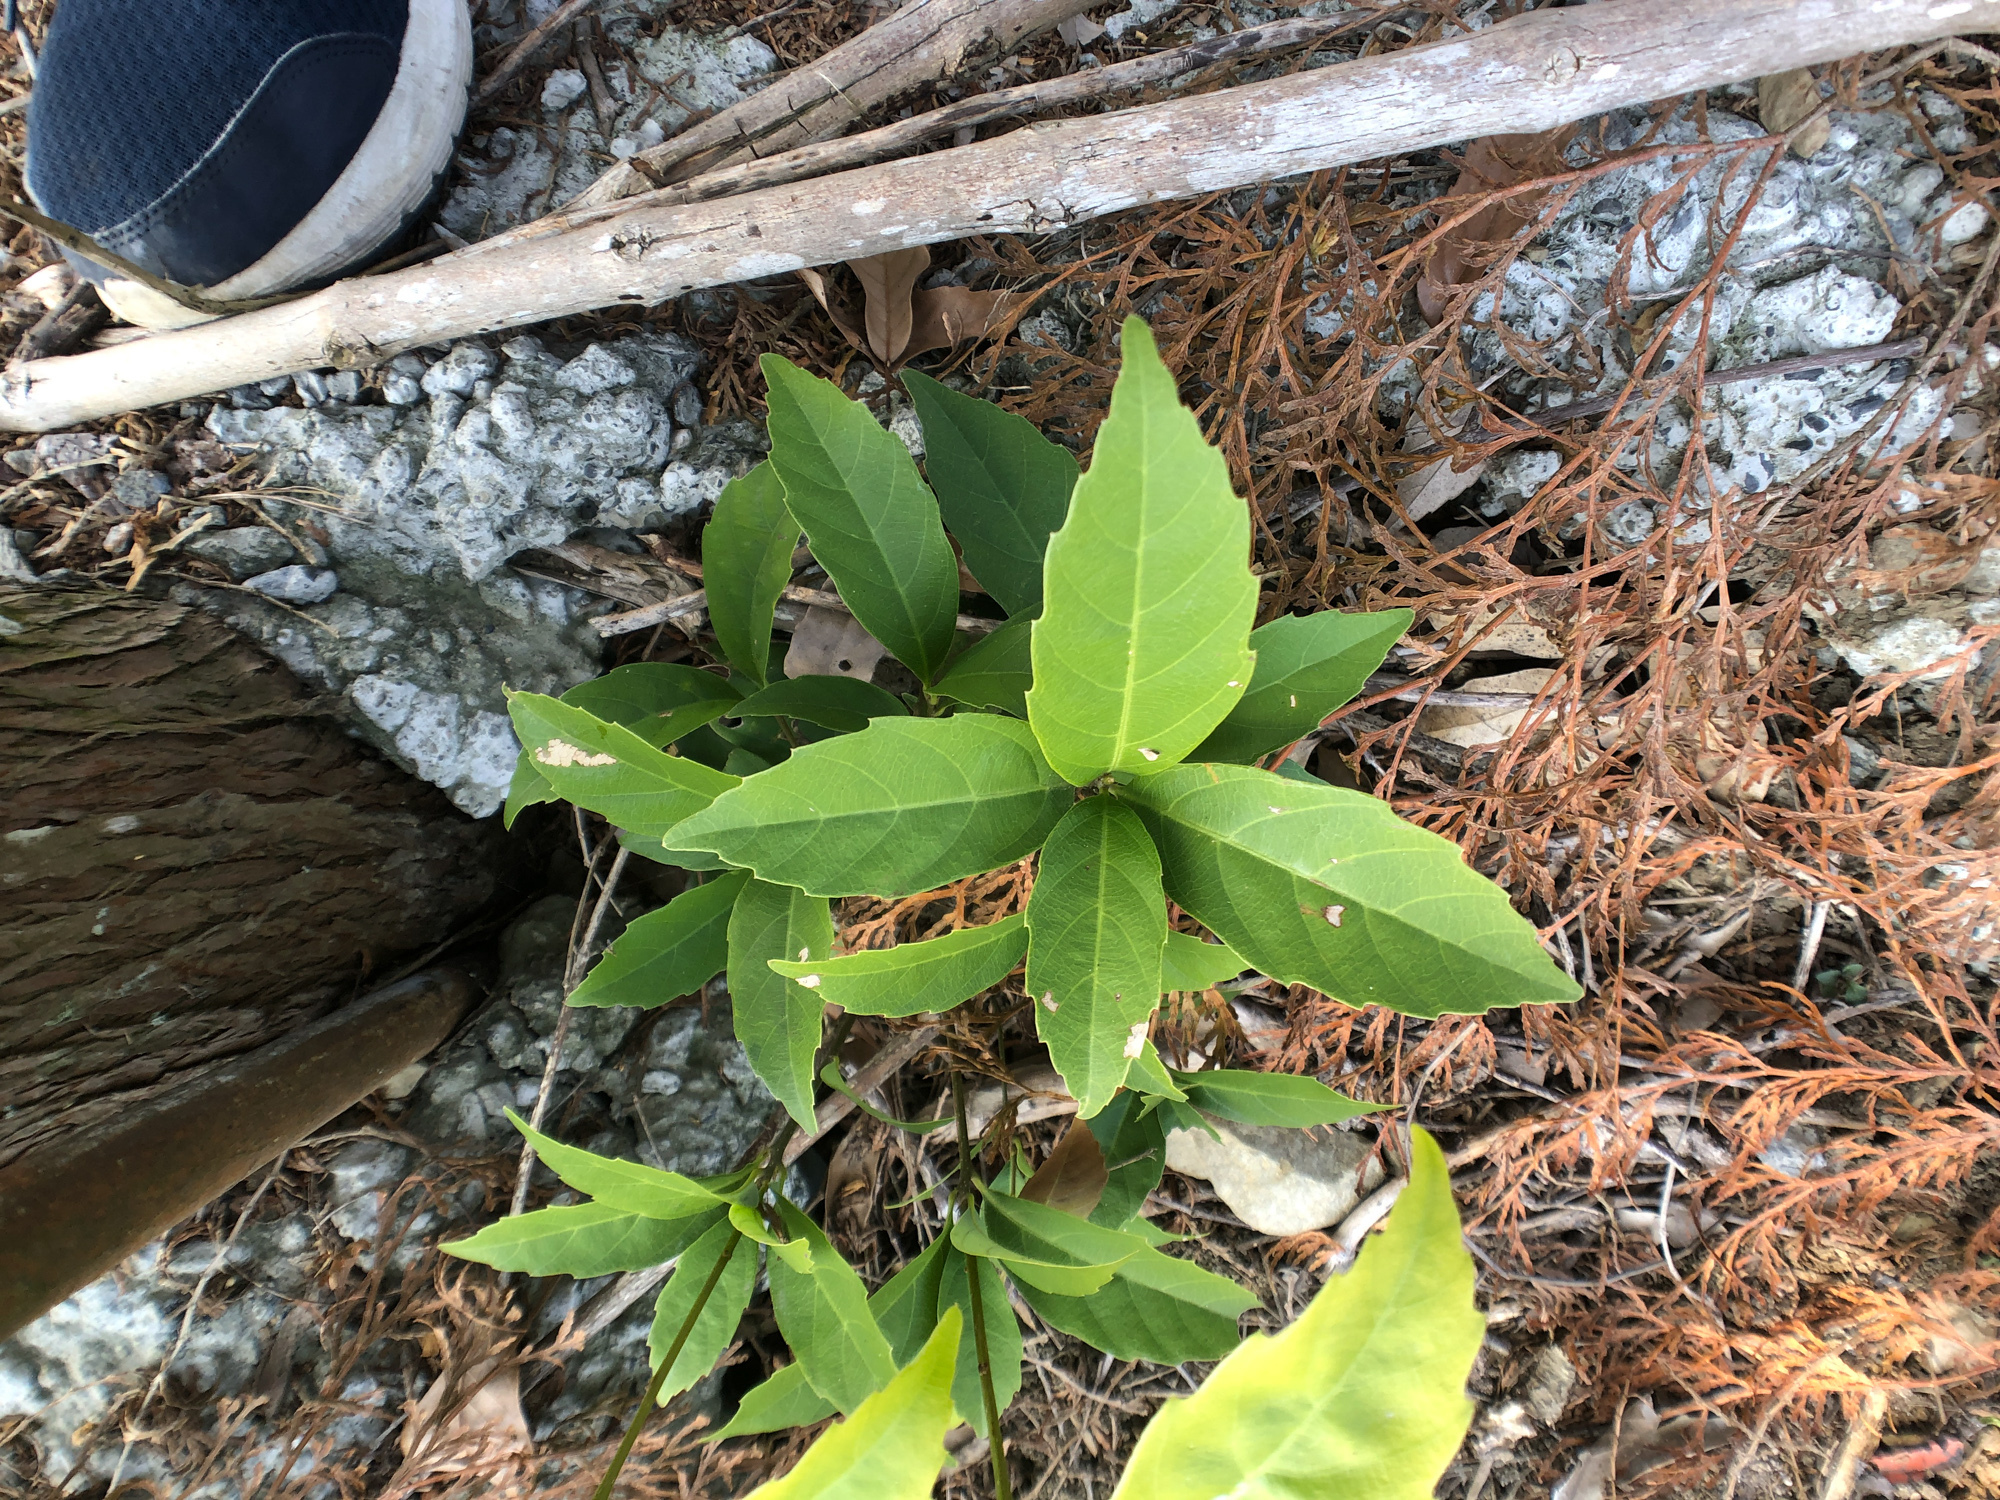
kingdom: Plantae
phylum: Tracheophyta
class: Magnoliopsida
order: Fagales
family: Fagaceae
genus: Quercus
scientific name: Quercus glauca
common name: Ring-cup oak
